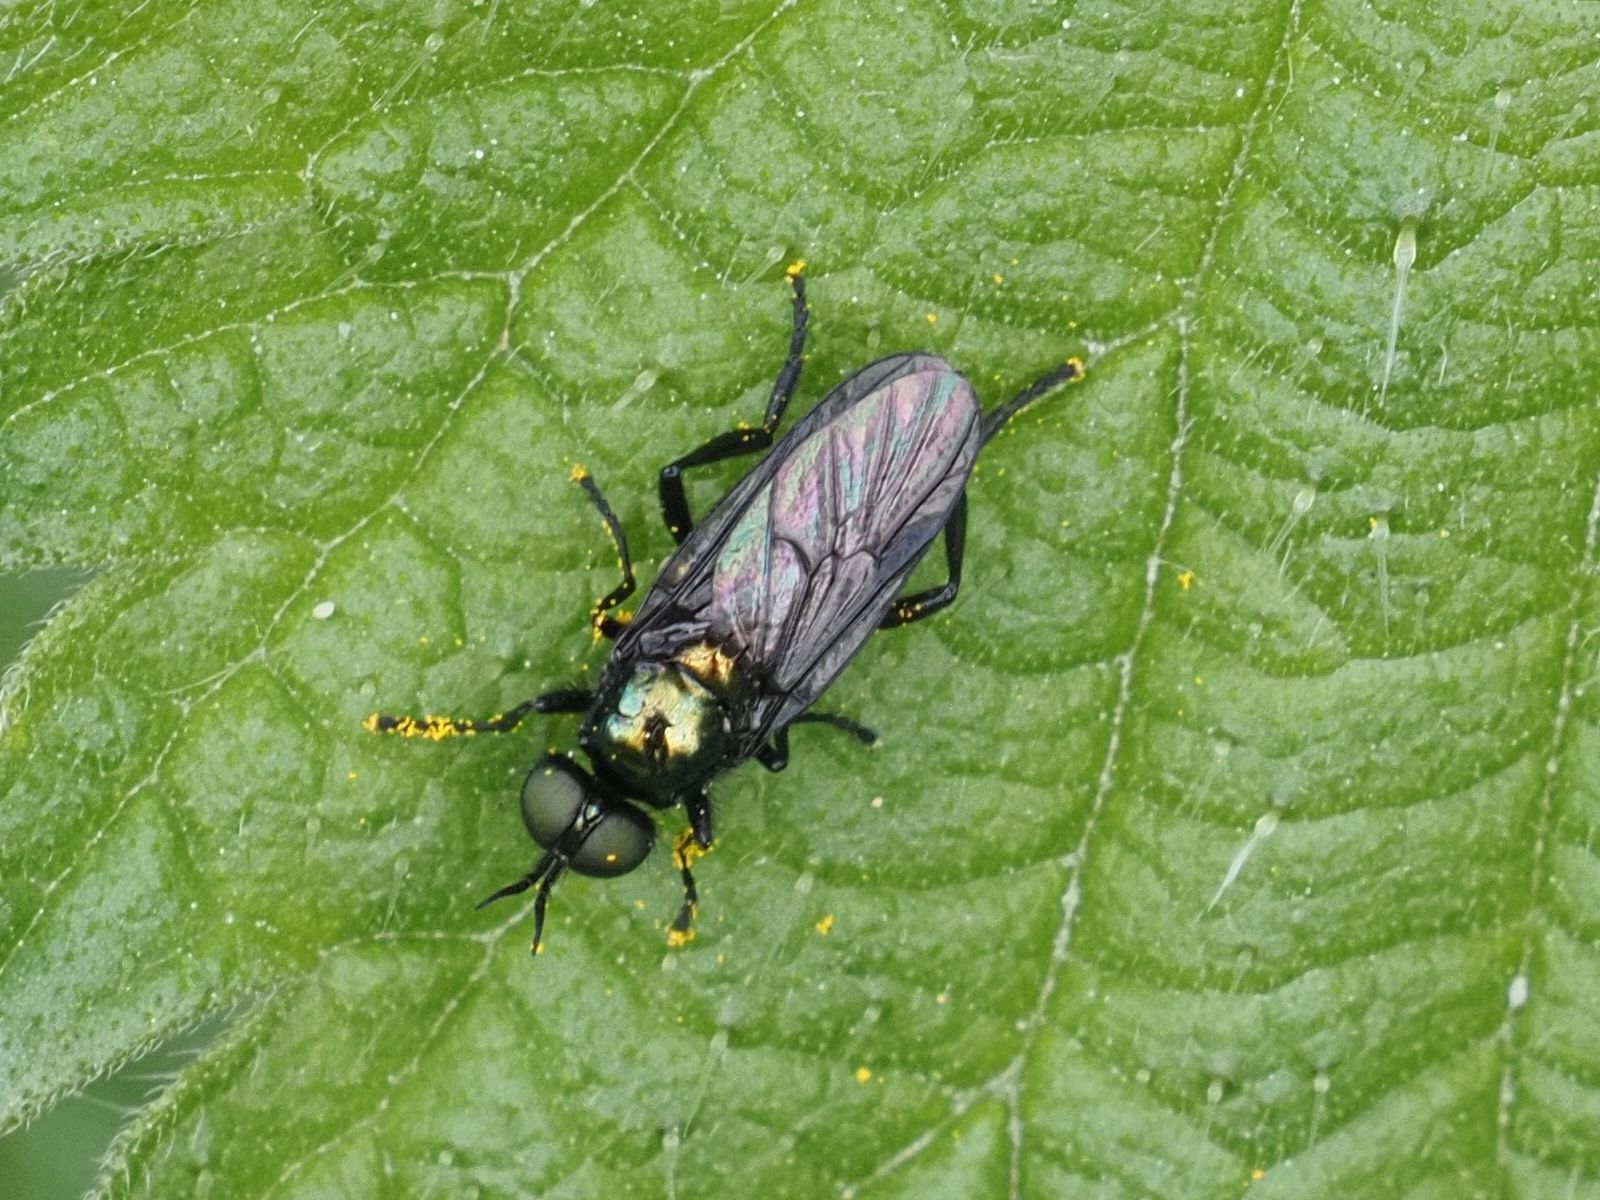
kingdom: Animalia
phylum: Arthropoda
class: Insecta
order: Diptera
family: Stratiomyidae
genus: Actina
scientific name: Actina chalybea
